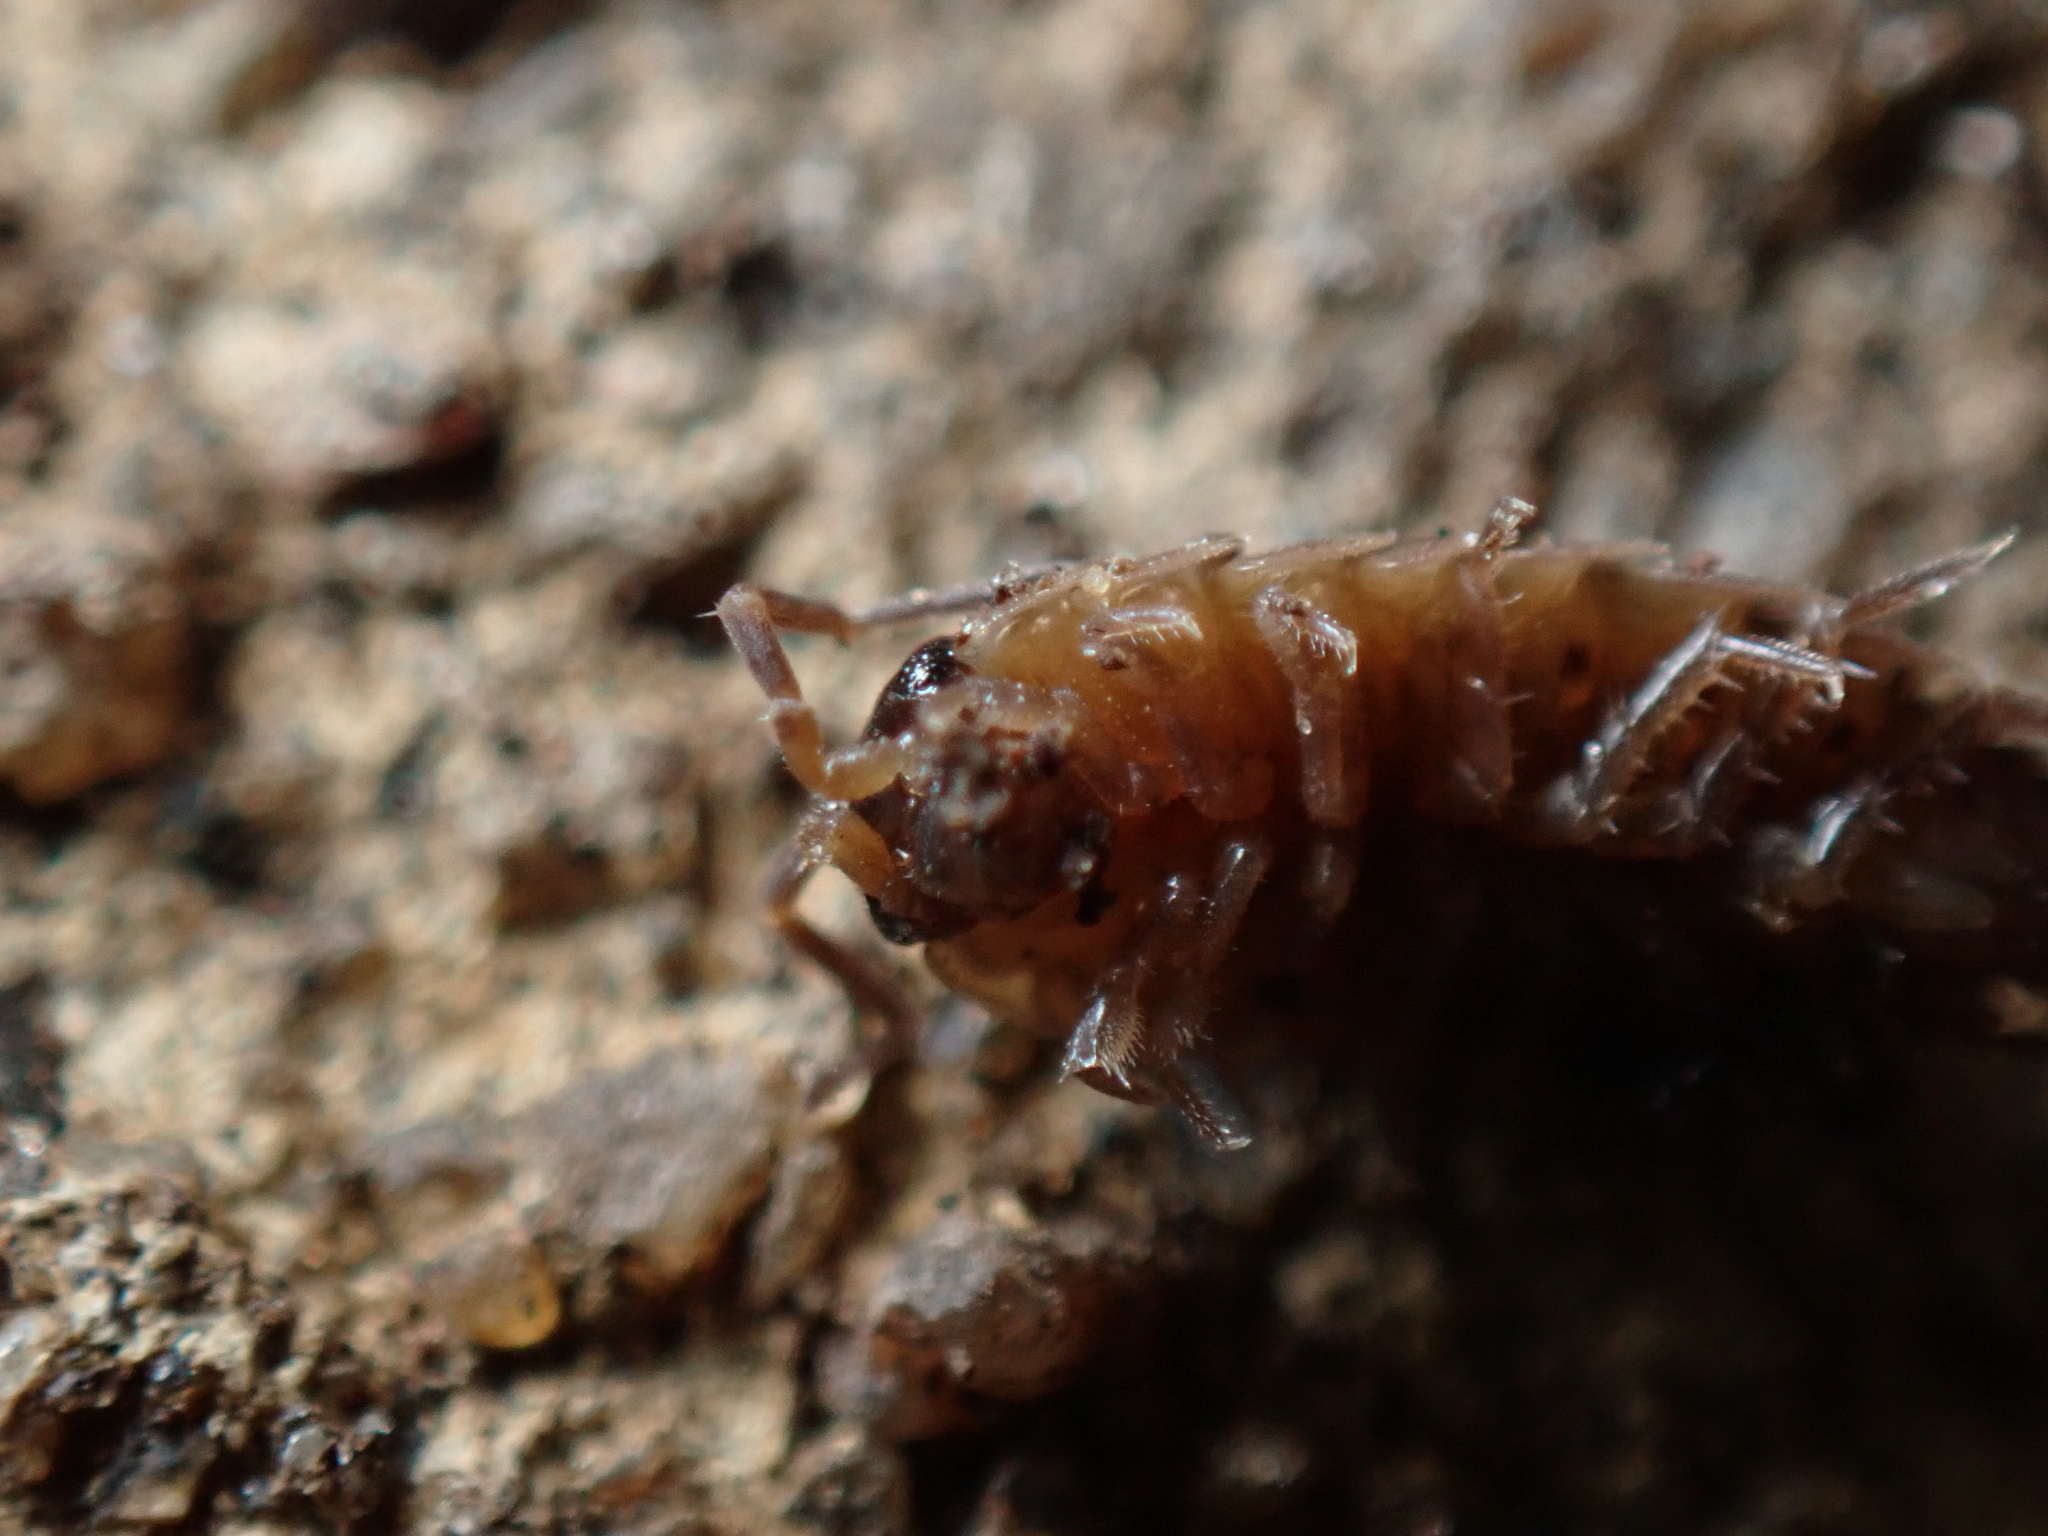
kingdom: Animalia
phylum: Arthropoda
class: Malacostraca
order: Isopoda
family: Philosciidae
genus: Philoscia
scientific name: Philoscia muscorum
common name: Common striped woodlouse
